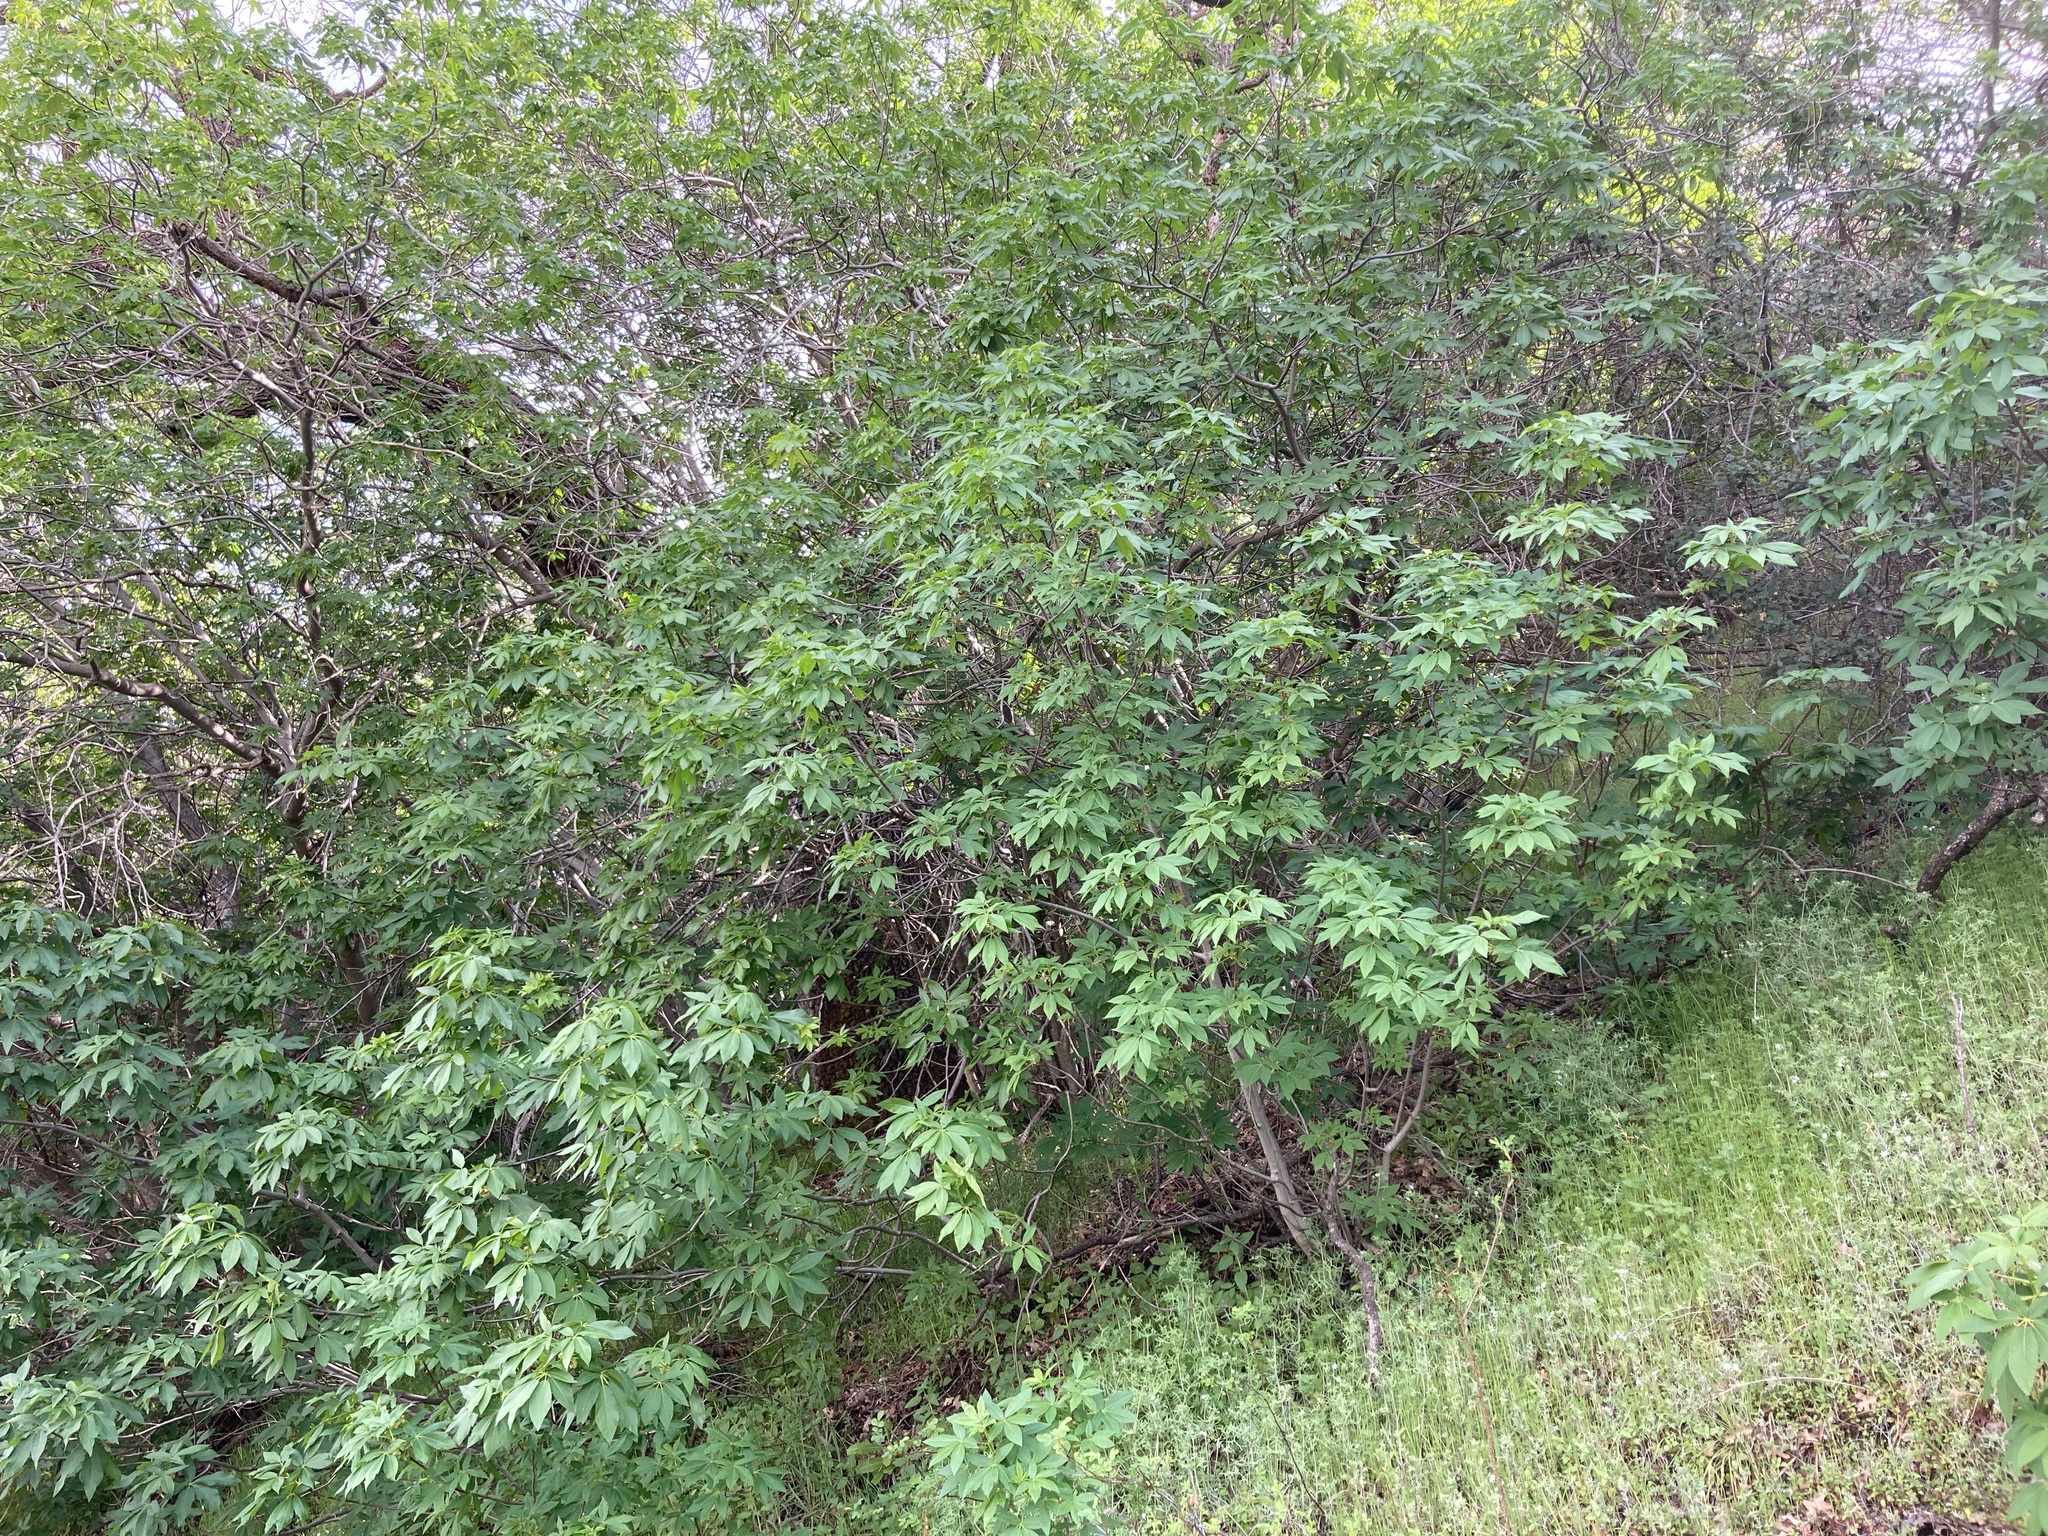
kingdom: Plantae
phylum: Tracheophyta
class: Magnoliopsida
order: Sapindales
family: Sapindaceae
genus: Aesculus
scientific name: Aesculus californica
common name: California buckeye
